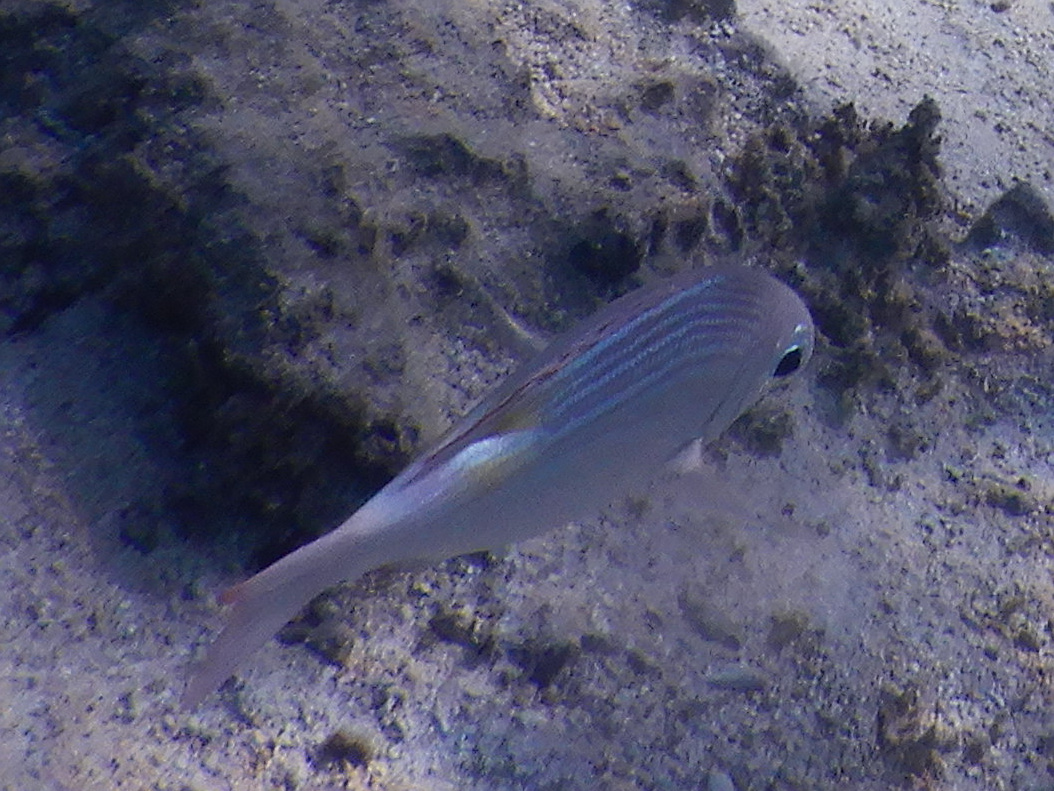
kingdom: Animalia
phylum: Chordata
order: Perciformes
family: Lethrinidae
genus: Gnathodentex
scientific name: Gnathodentex aureolineatus
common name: Gold-lined sea bream
